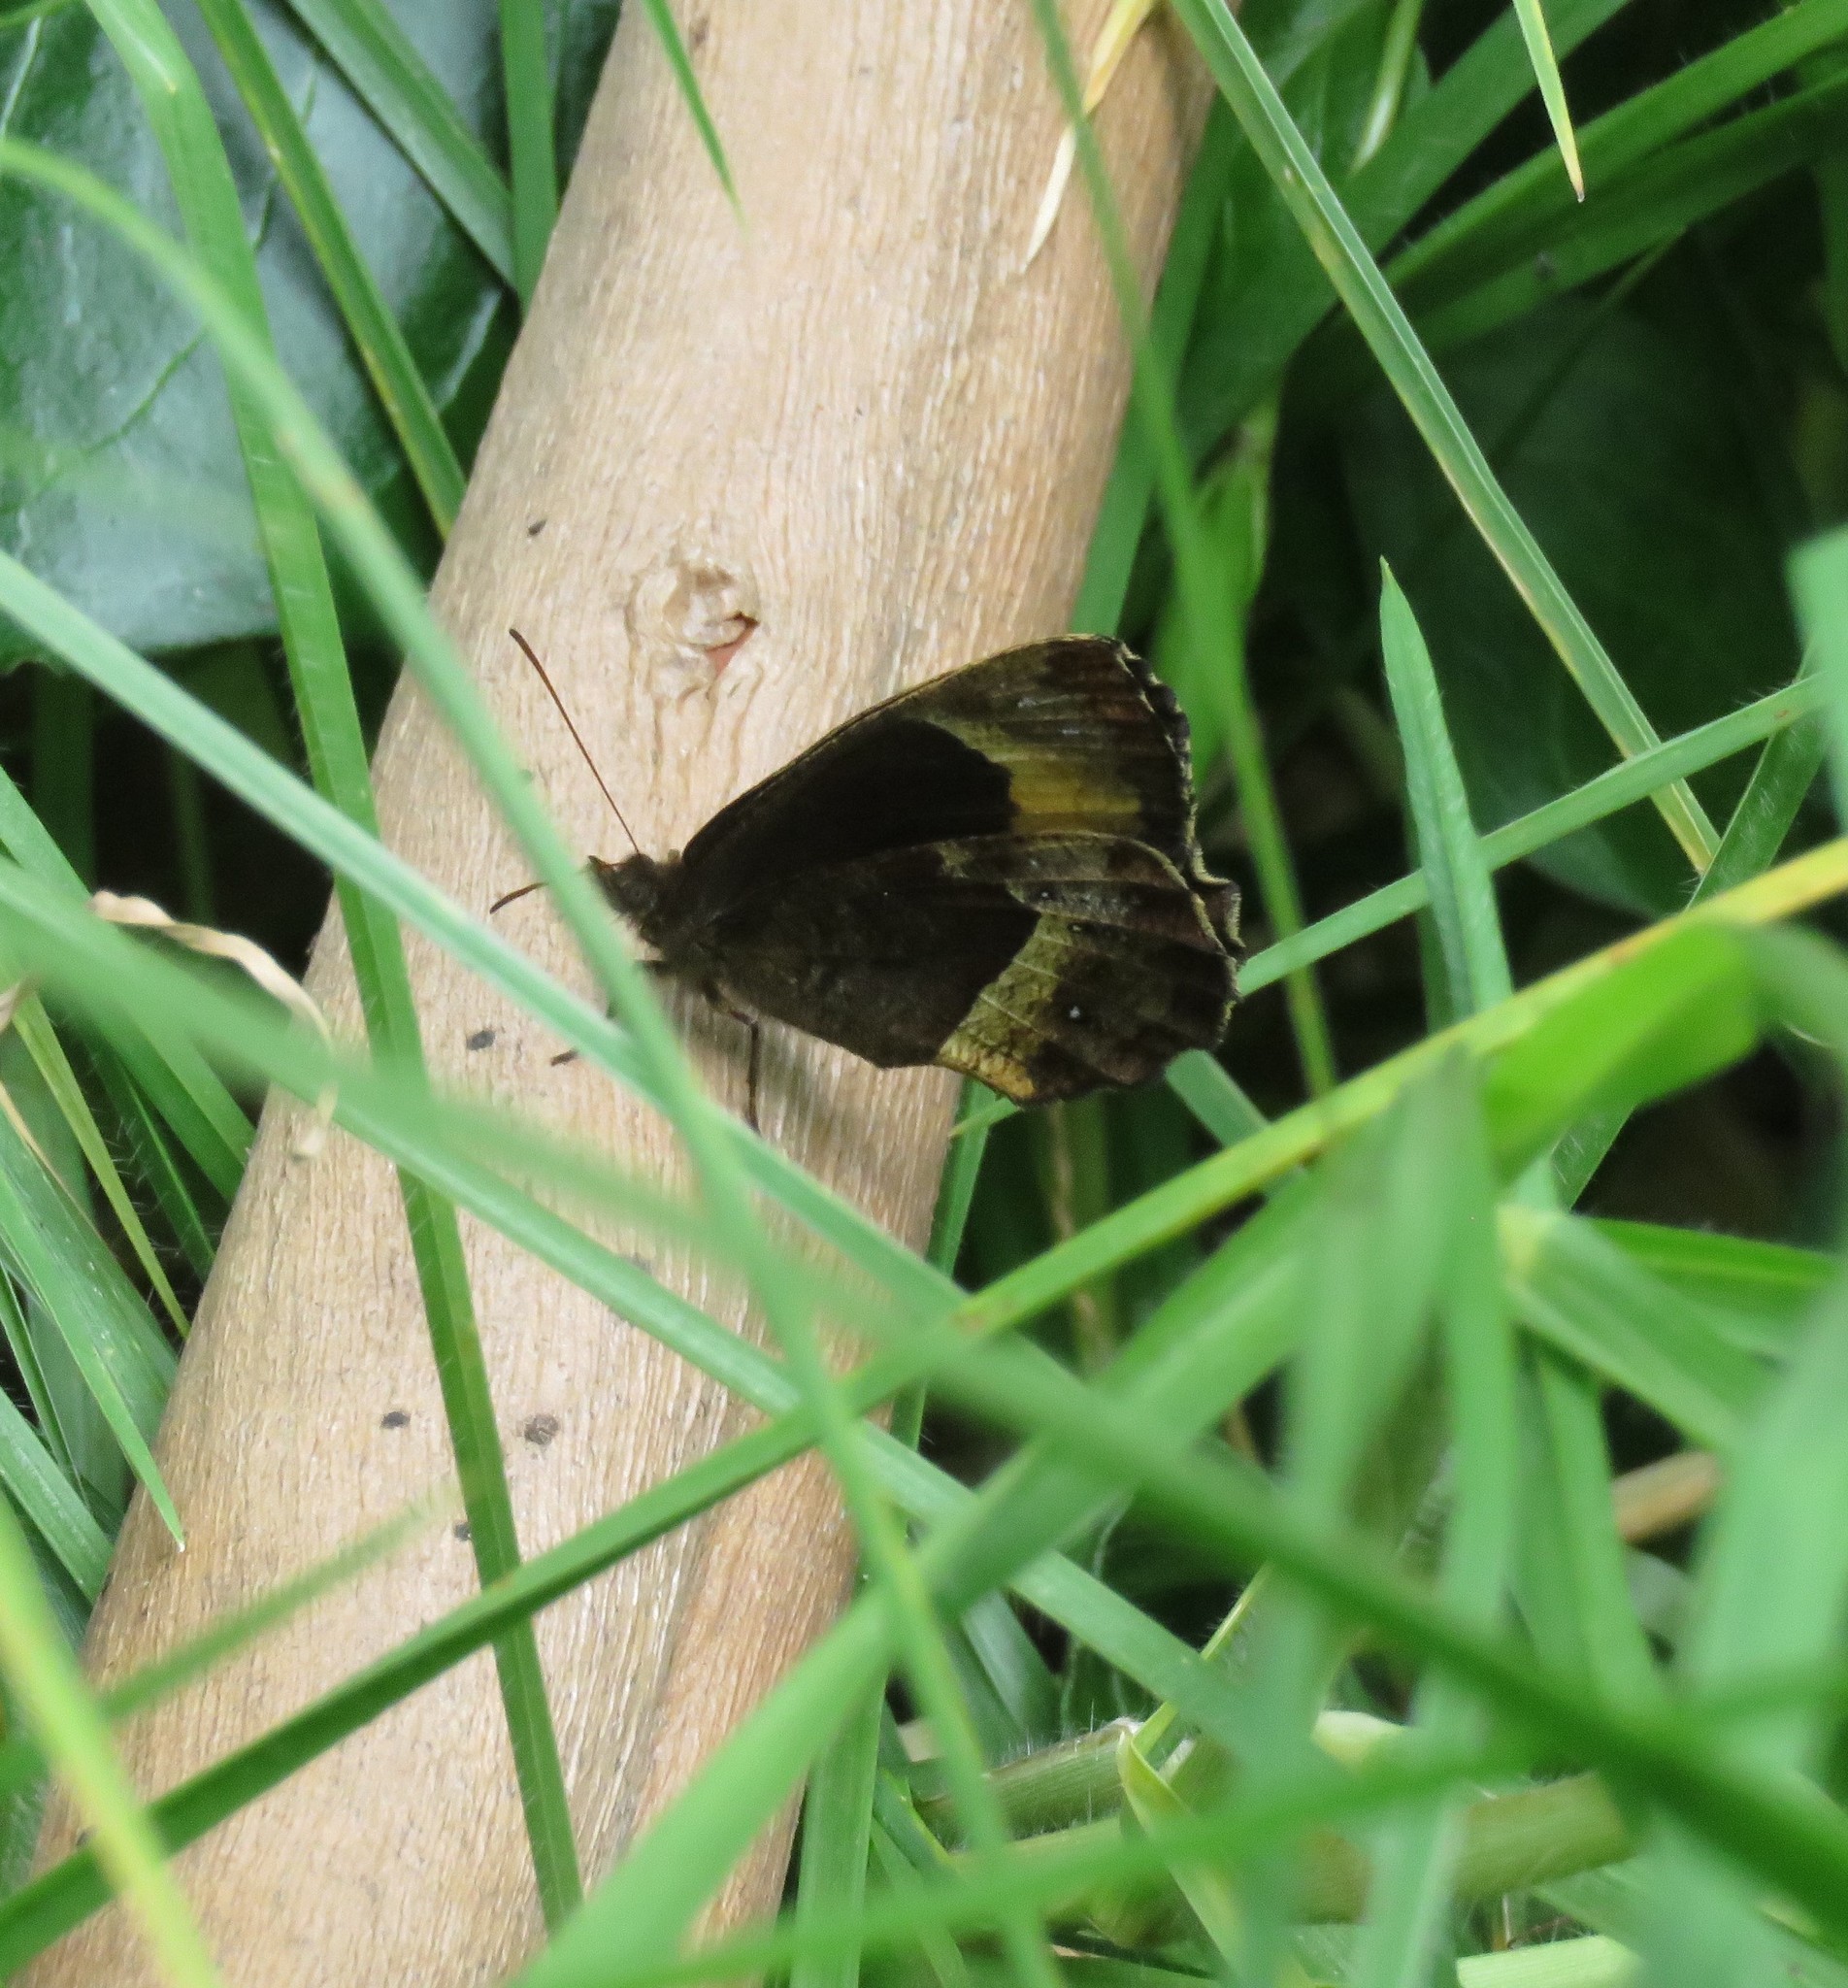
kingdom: Animalia
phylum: Arthropoda
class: Insecta
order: Lepidoptera
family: Nymphalidae
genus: Pedaliodes
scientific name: Pedaliodes
